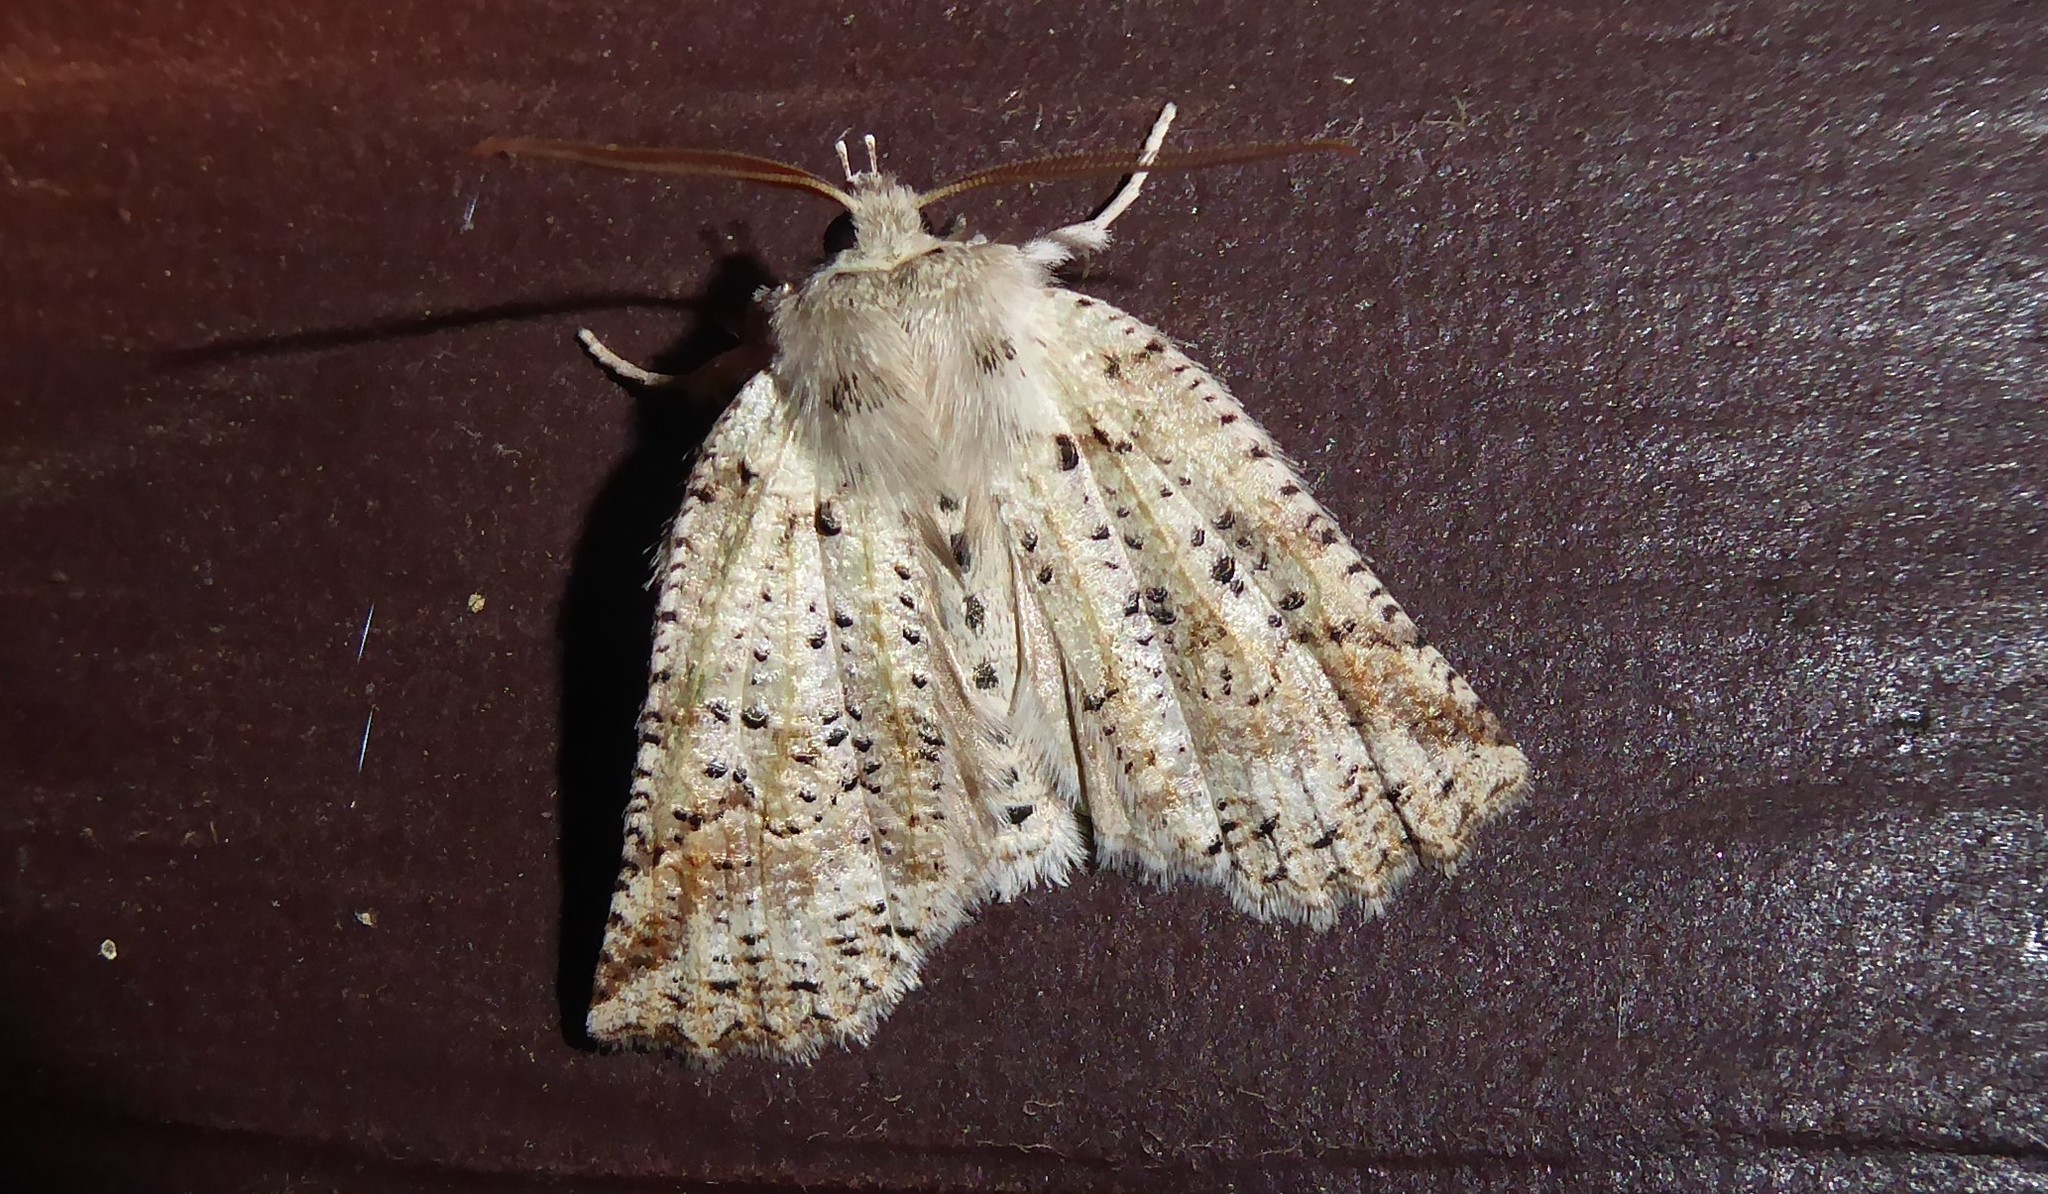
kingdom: Animalia
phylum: Arthropoda
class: Insecta
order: Lepidoptera
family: Geometridae
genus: Declana
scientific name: Declana floccosa
